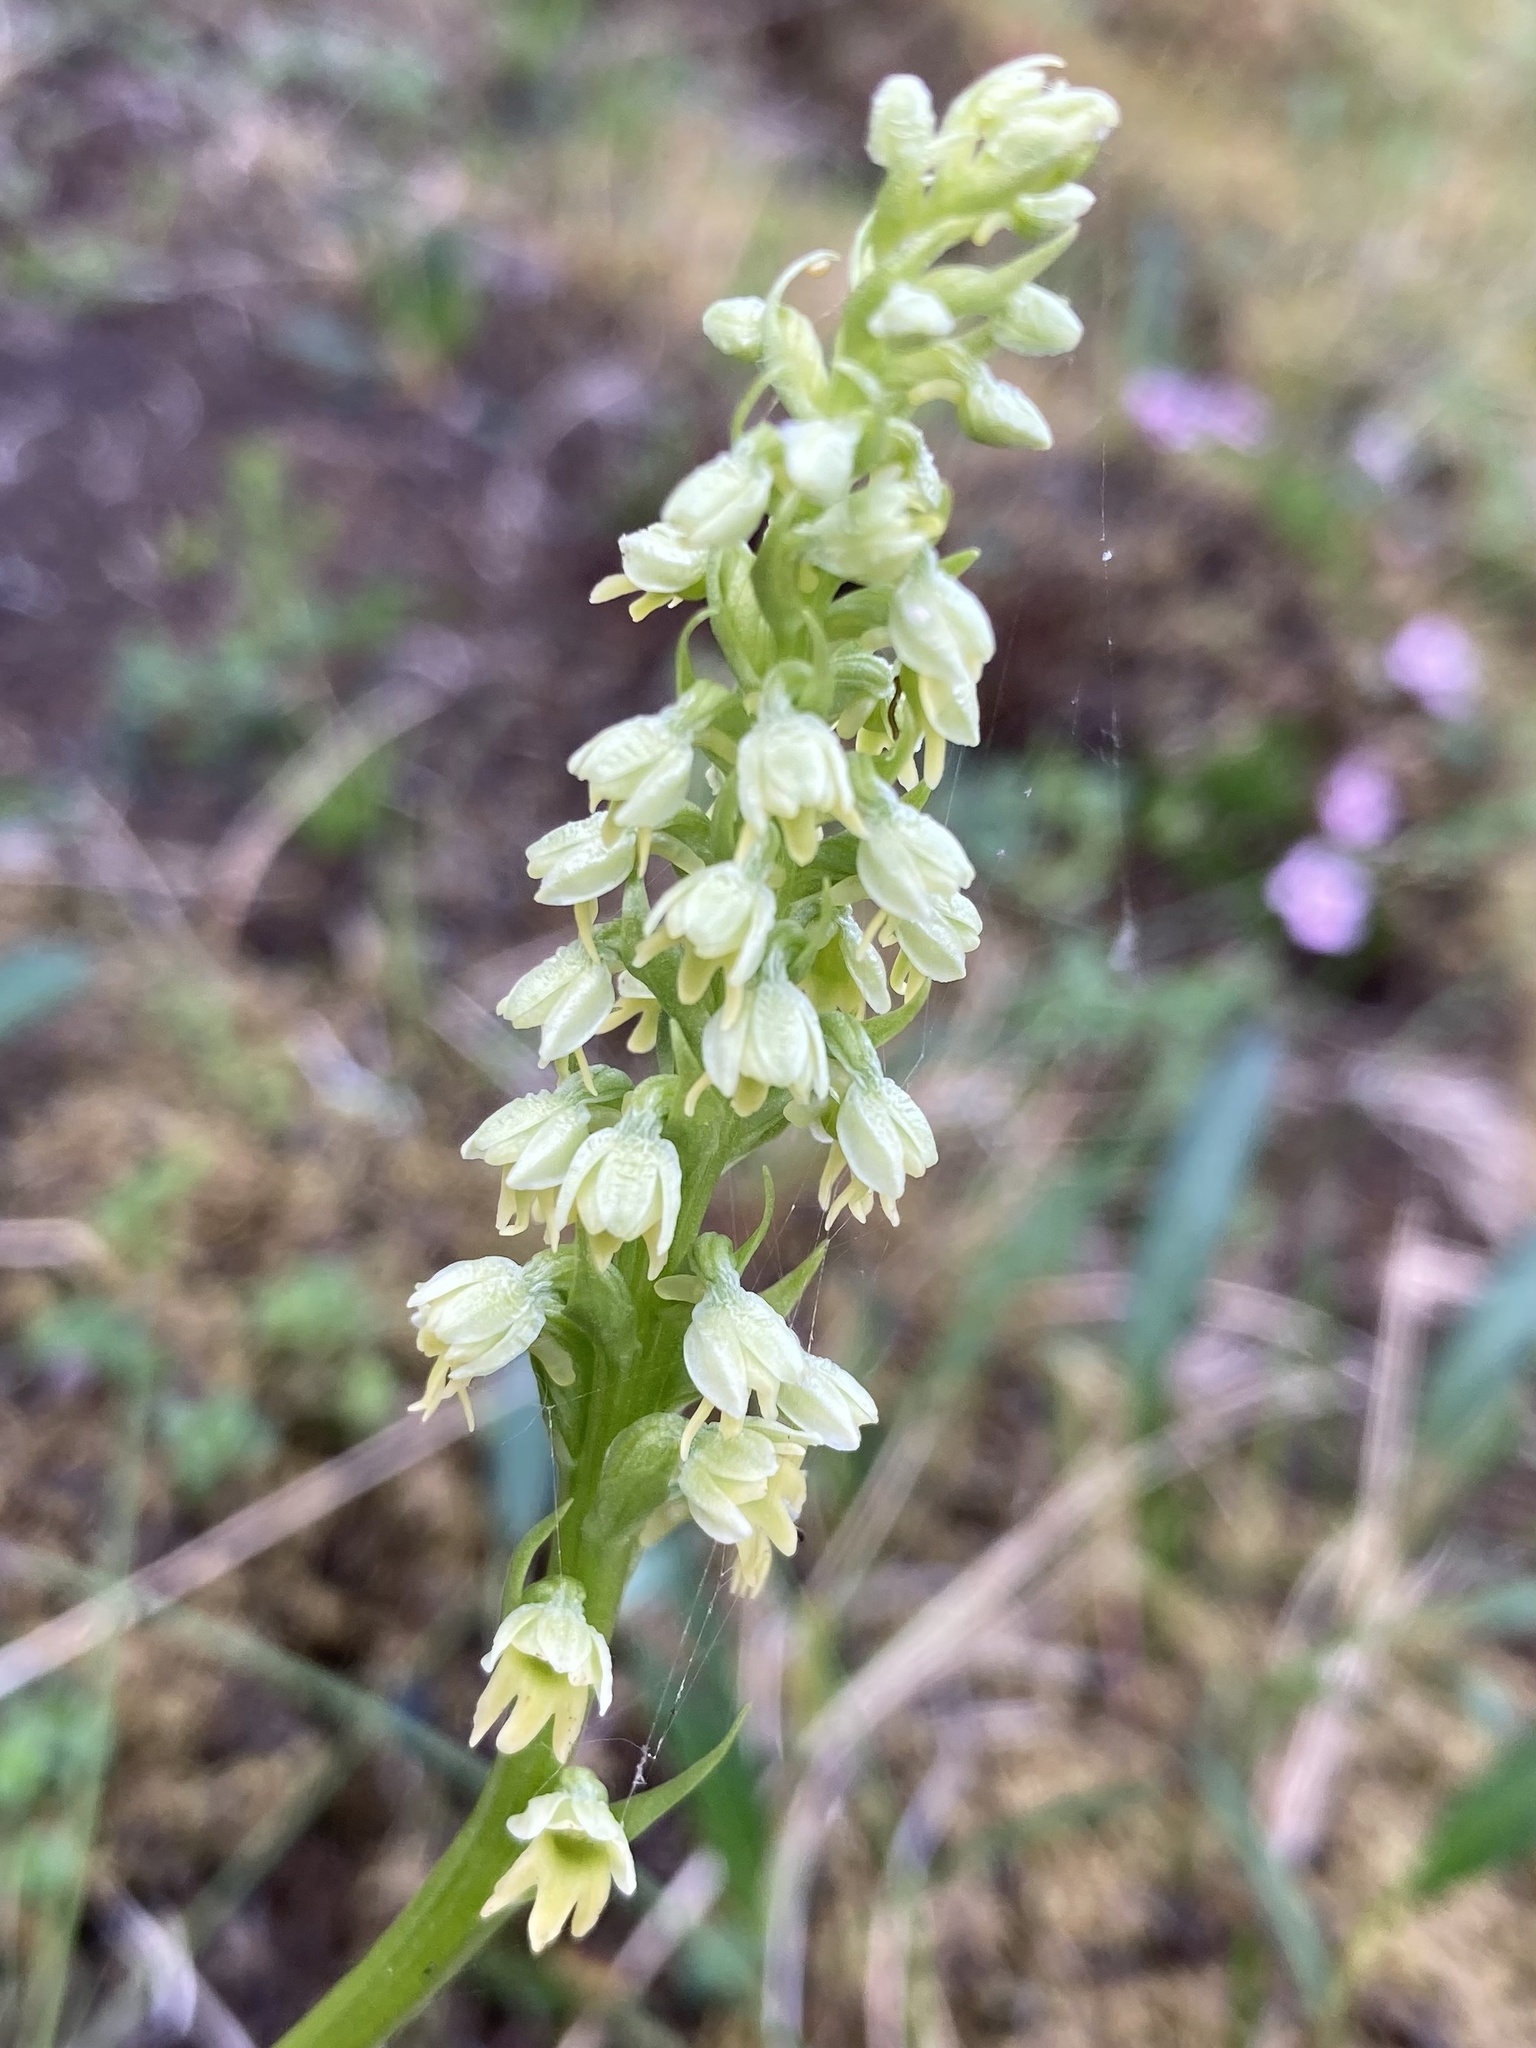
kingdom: Plantae
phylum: Tracheophyta
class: Liliopsida
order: Asparagales
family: Orchidaceae
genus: Pseudorchis
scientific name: Pseudorchis albida
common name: Small-white orchid
